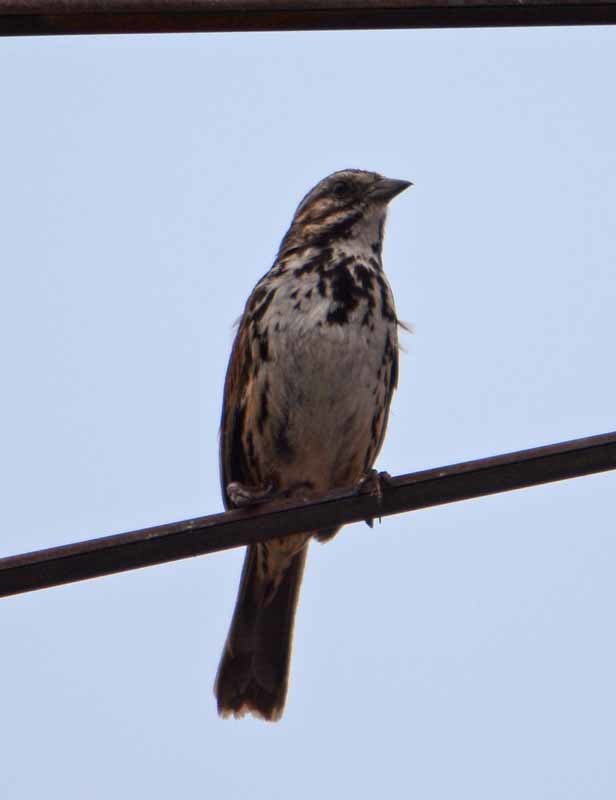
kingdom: Animalia
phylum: Chordata
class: Aves
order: Passeriformes
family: Passerellidae
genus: Melospiza
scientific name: Melospiza melodia
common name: Song sparrow
